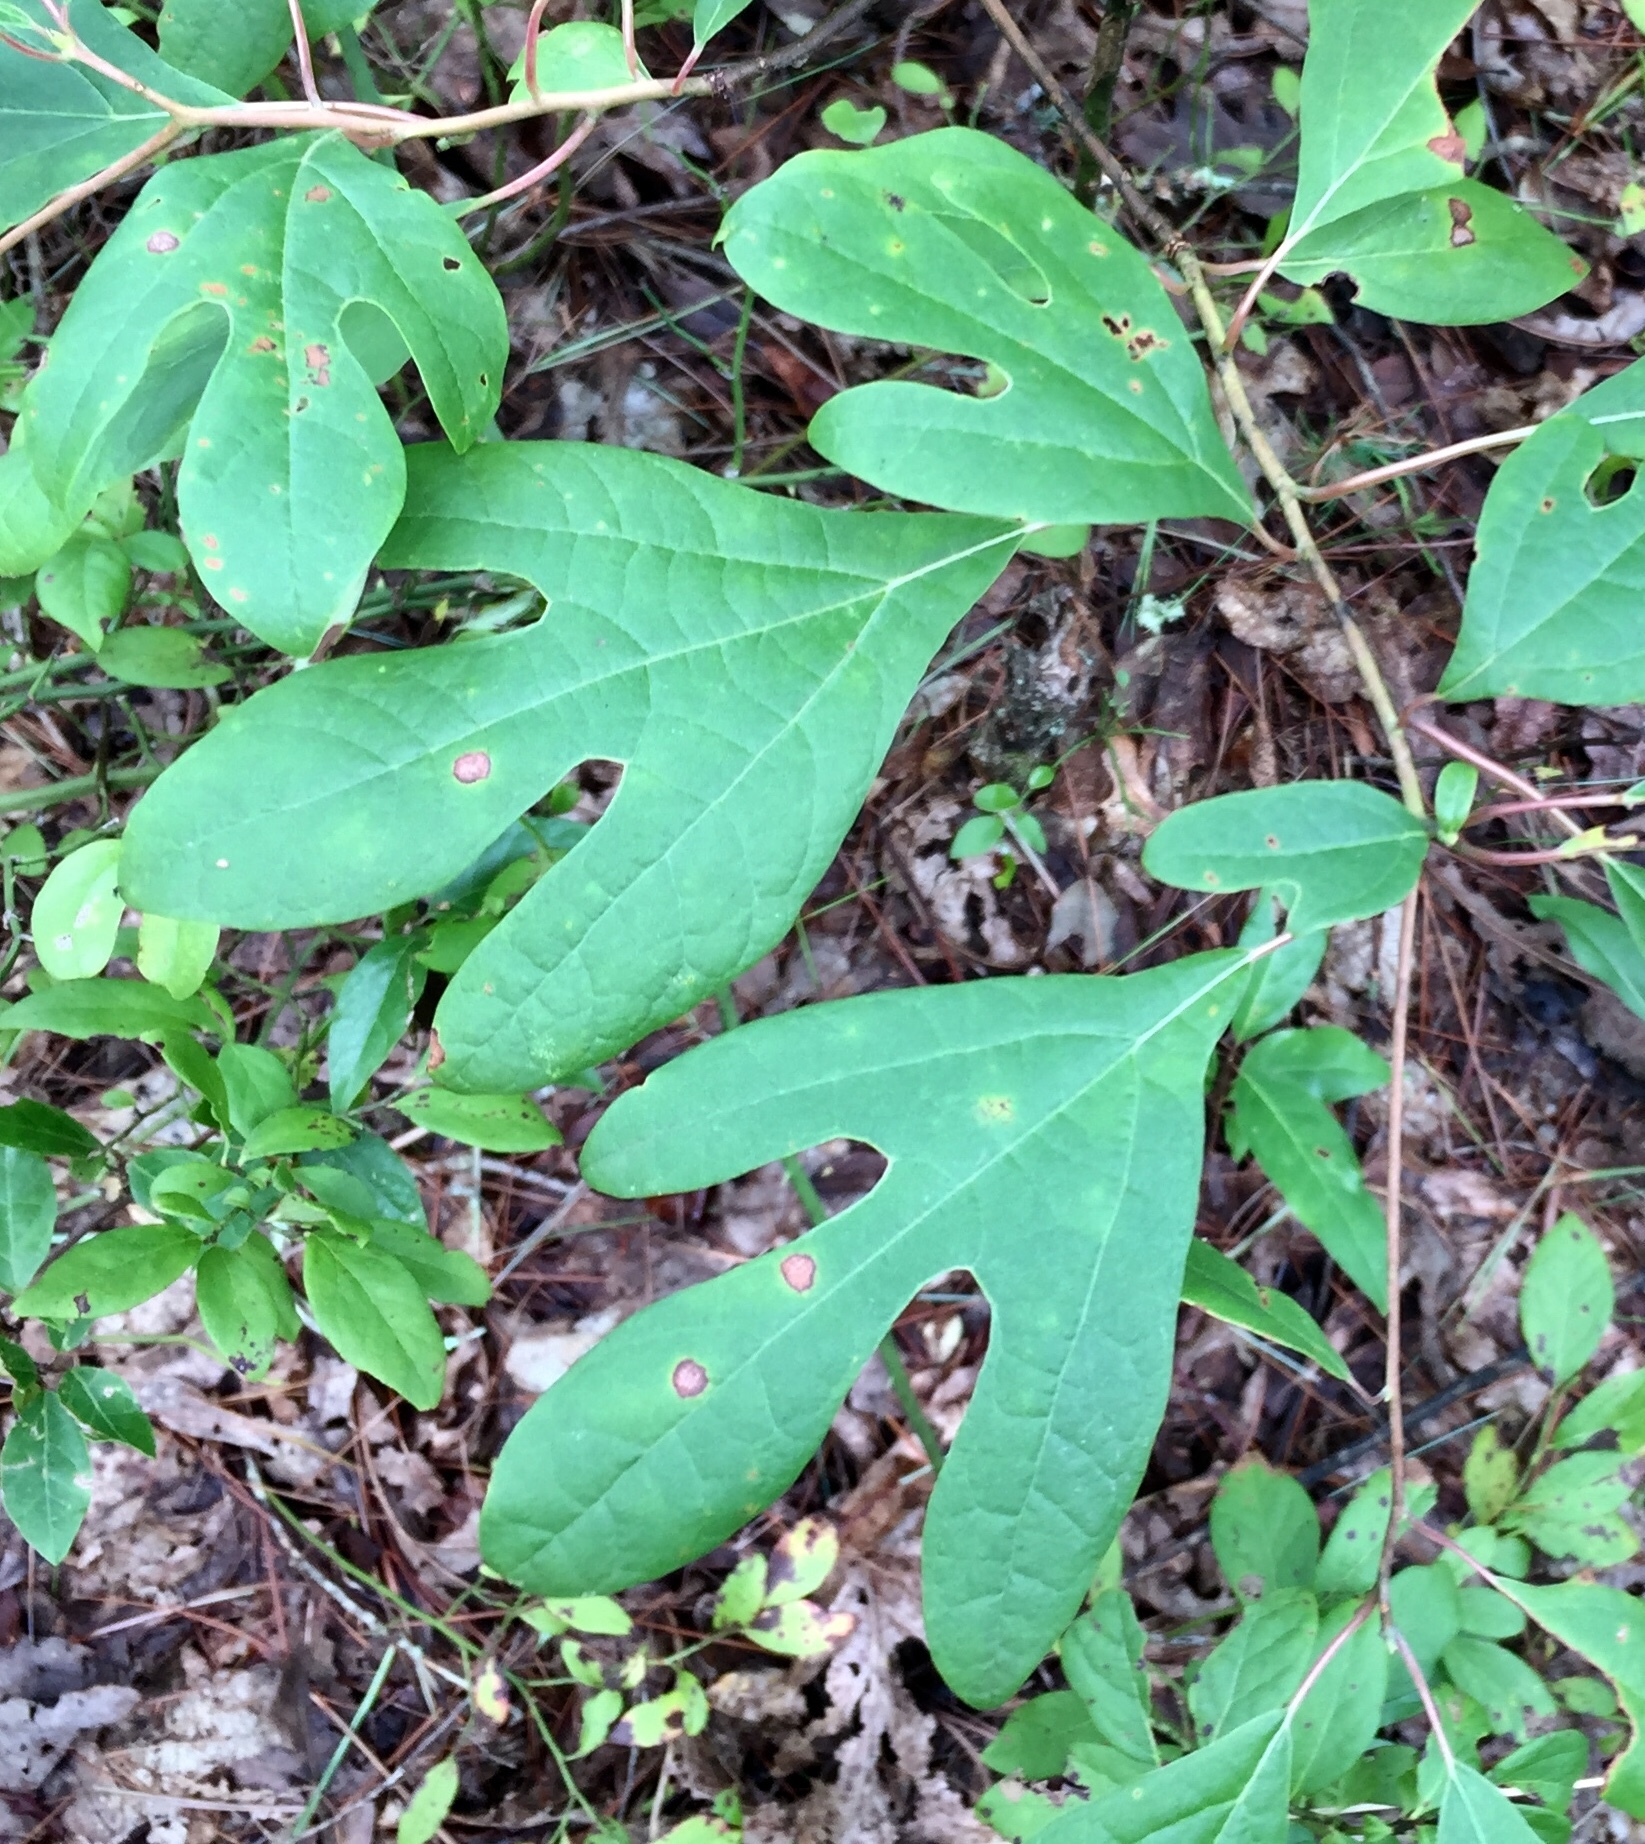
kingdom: Plantae
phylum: Tracheophyta
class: Magnoliopsida
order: Laurales
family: Lauraceae
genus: Sassafras
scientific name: Sassafras albidum
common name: Sassafras
